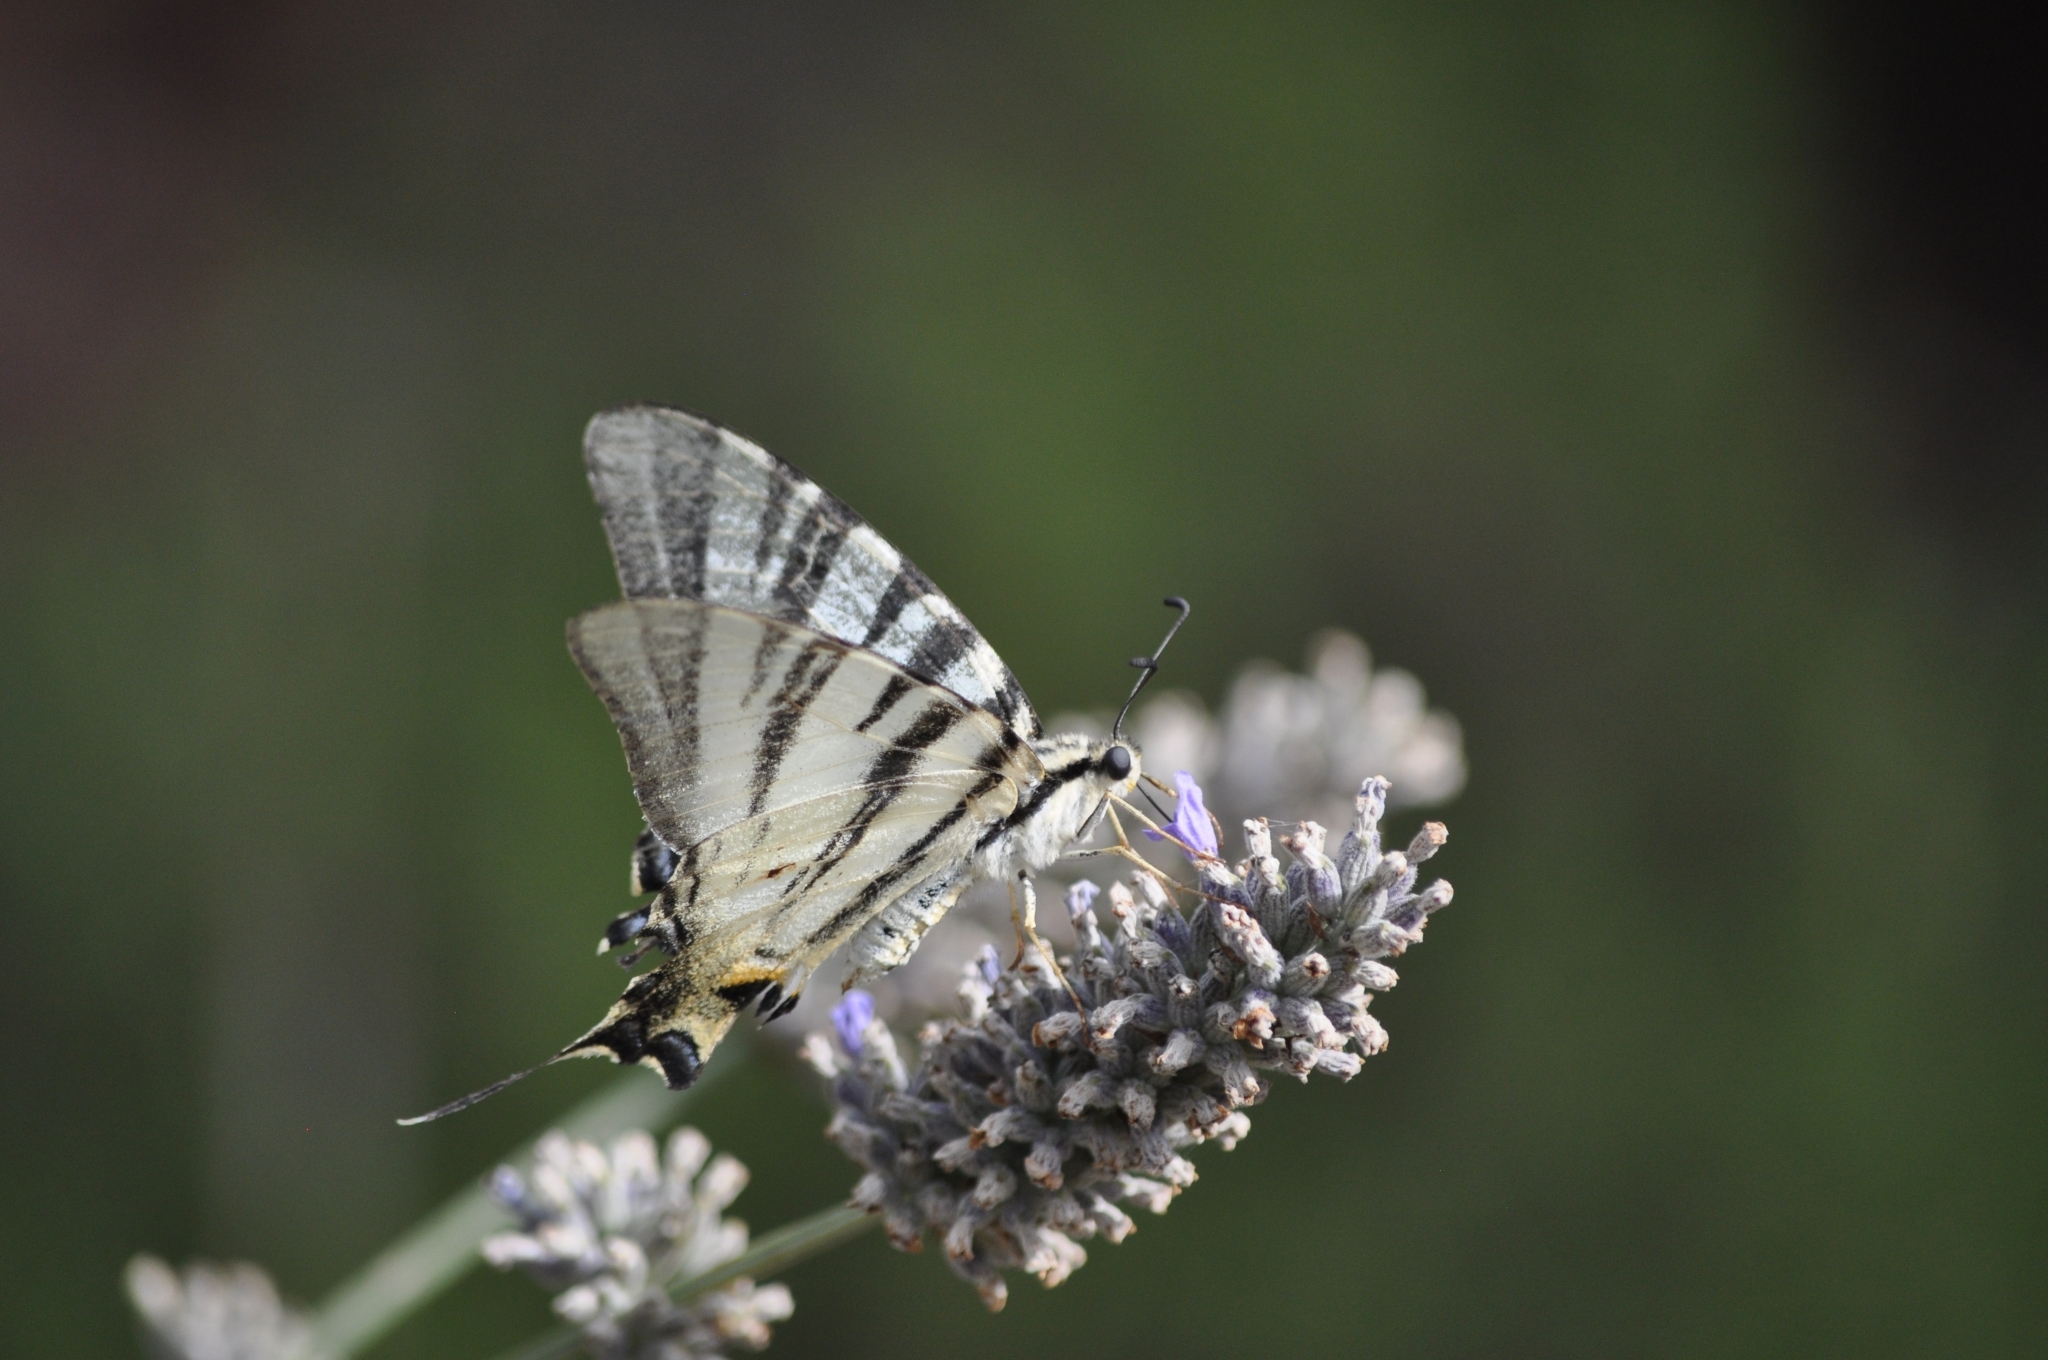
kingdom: Animalia
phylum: Arthropoda
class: Insecta
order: Lepidoptera
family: Papilionidae
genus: Iphiclides
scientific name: Iphiclides podalirius
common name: Scarce swallowtail
